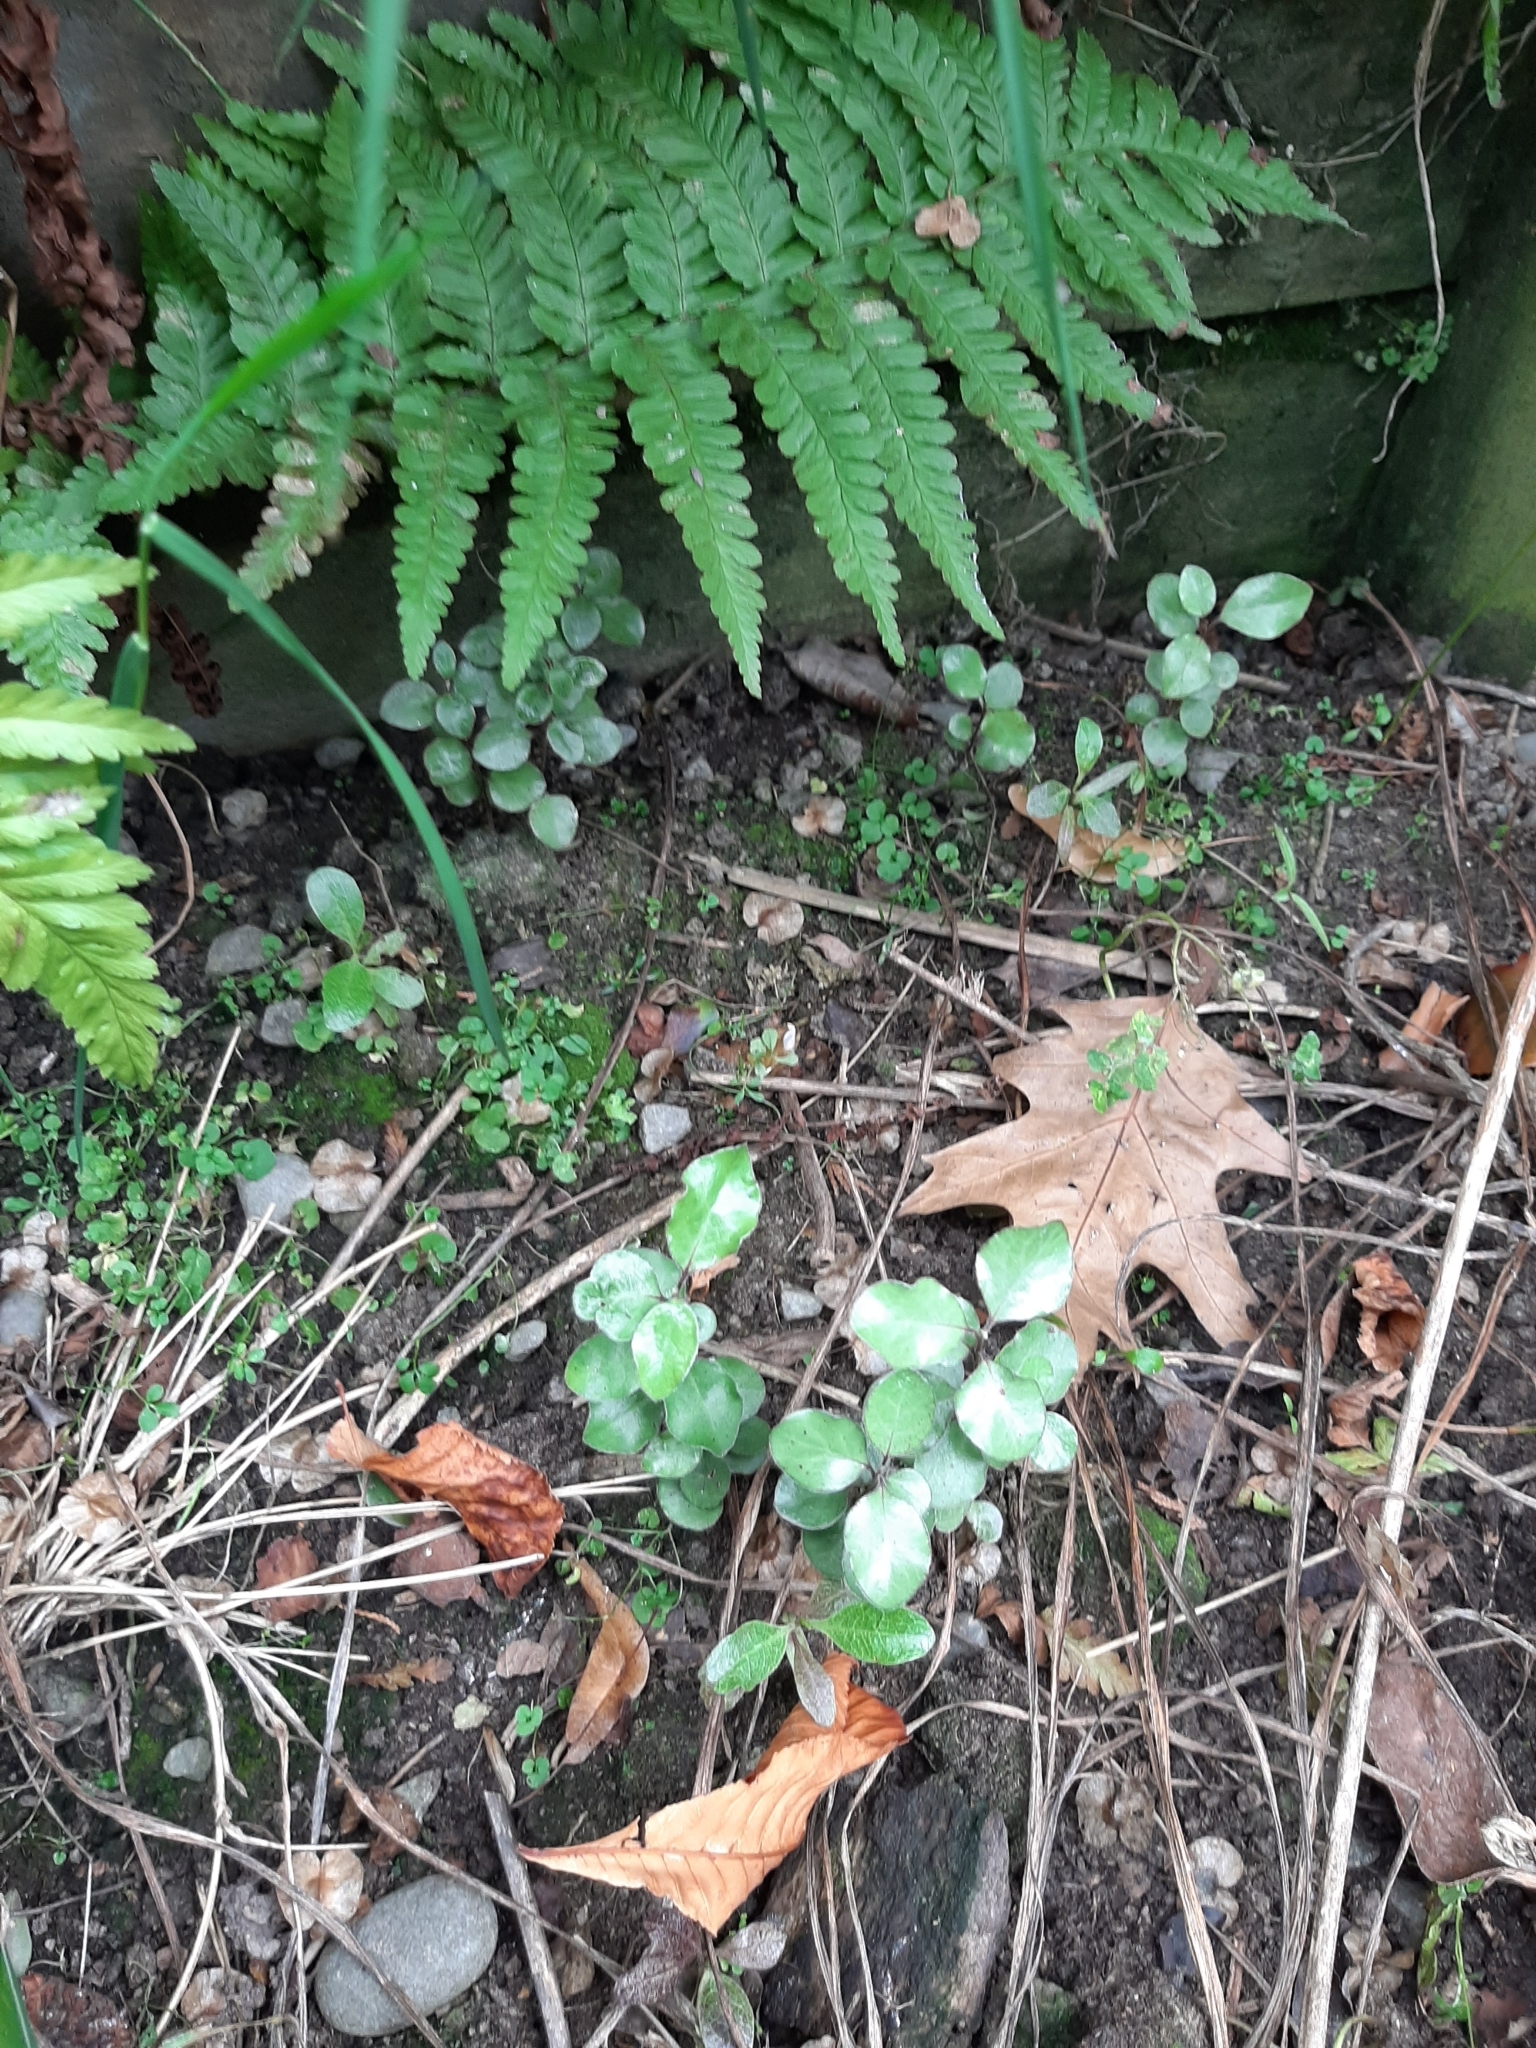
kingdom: Plantae
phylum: Tracheophyta
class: Magnoliopsida
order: Apiales
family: Pittosporaceae
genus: Pittosporum
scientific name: Pittosporum tenuifolium
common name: Kohuhu
